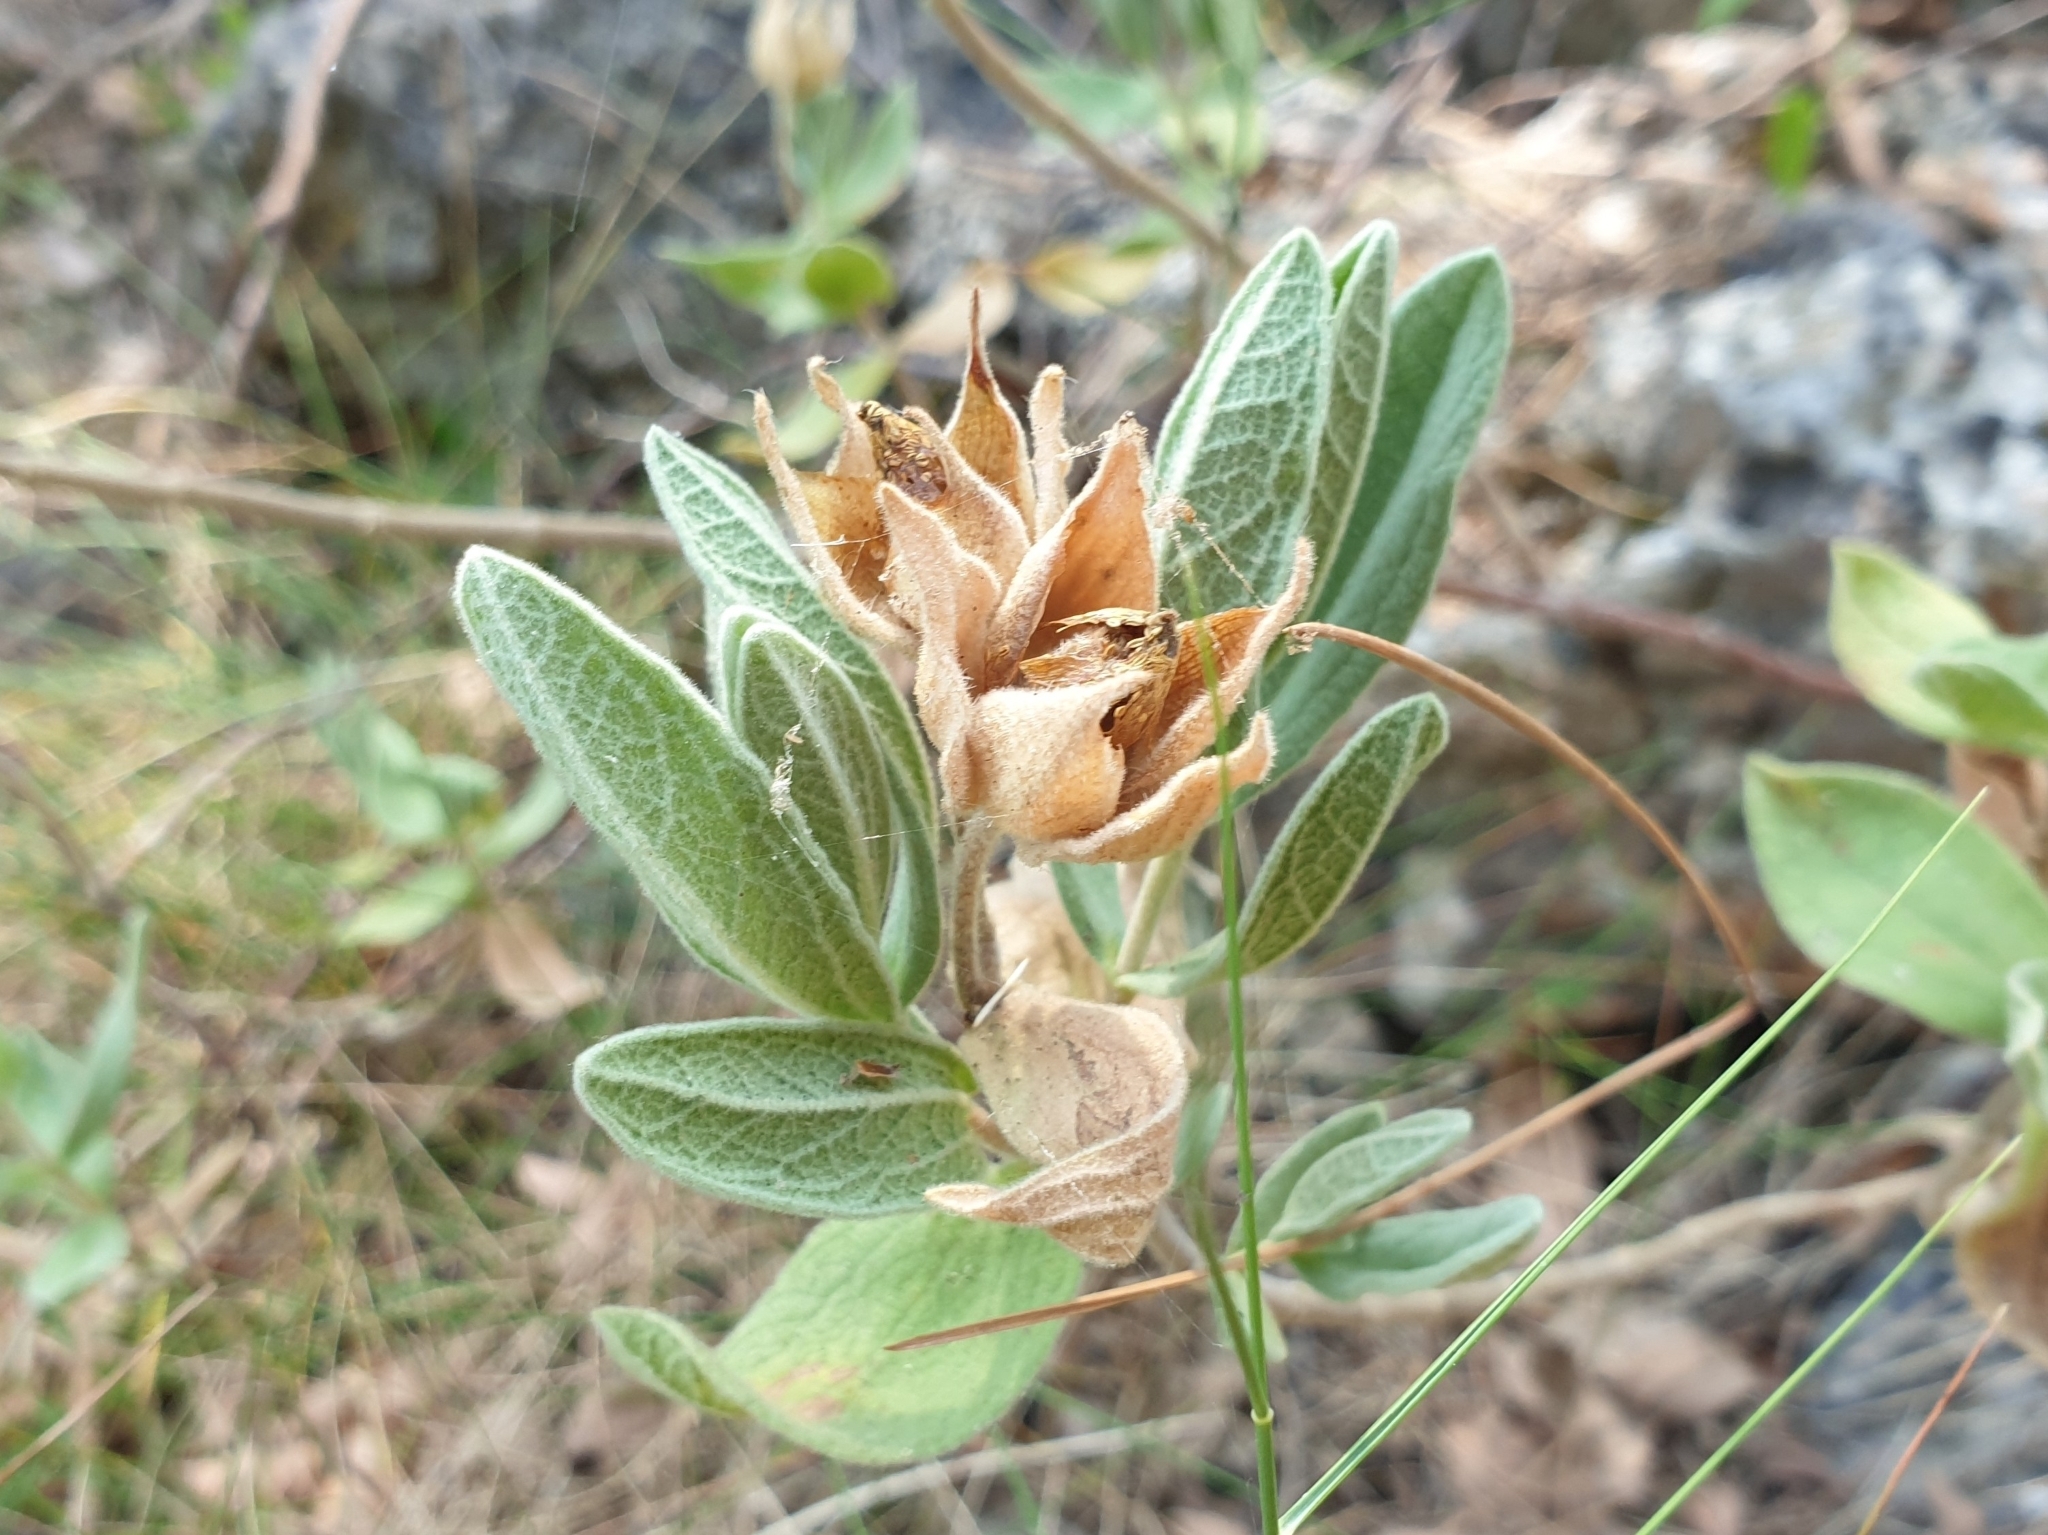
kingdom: Plantae
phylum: Tracheophyta
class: Magnoliopsida
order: Malvales
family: Cistaceae
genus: Cistus
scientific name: Cistus albidus
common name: White-leaf rock-rose
